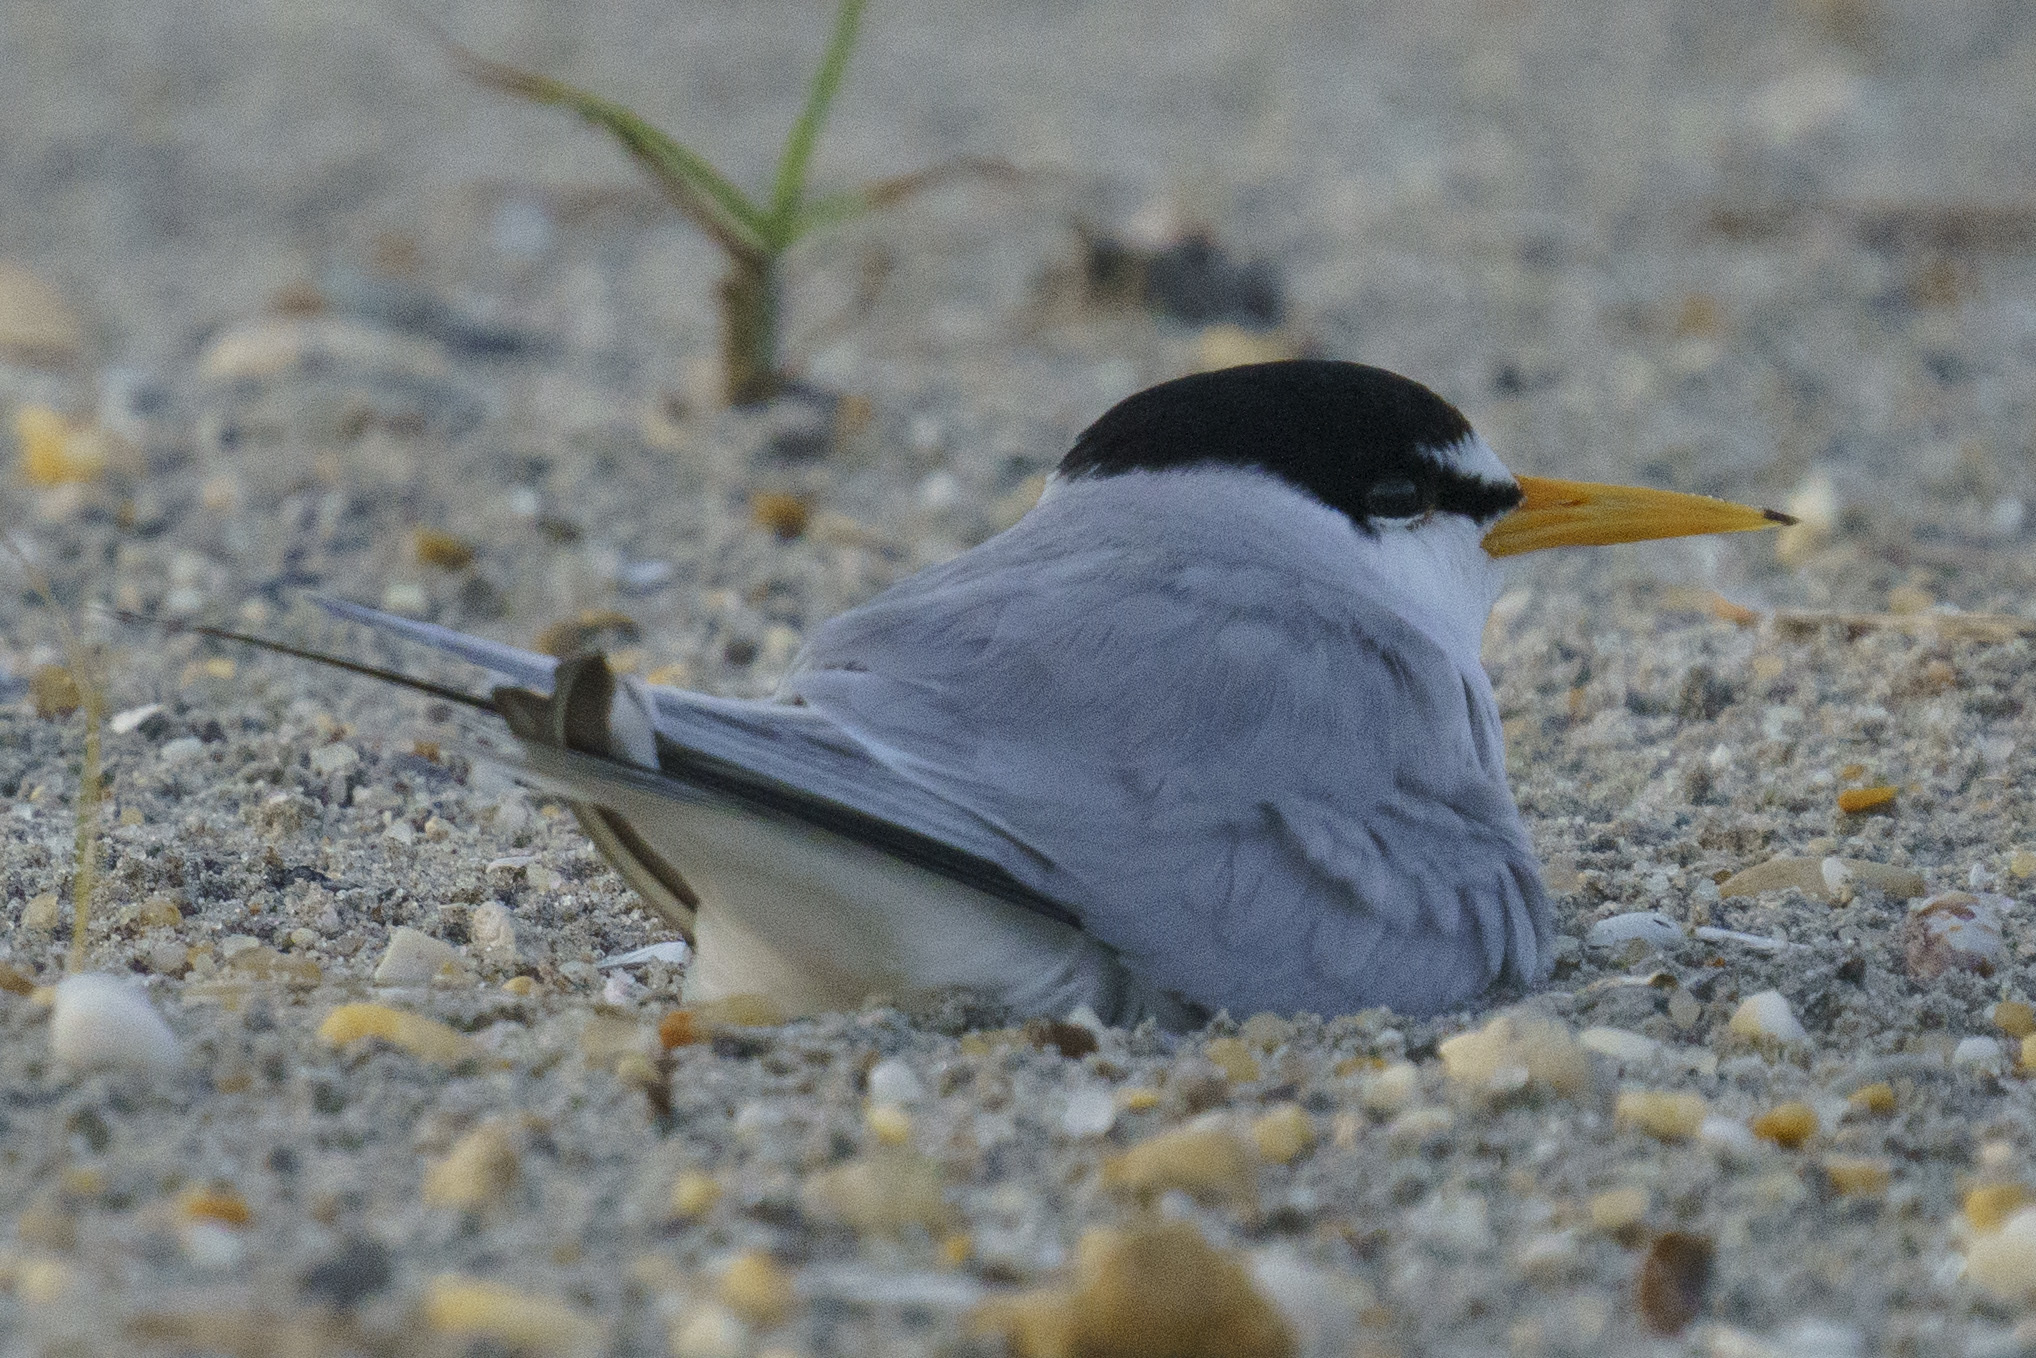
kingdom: Animalia
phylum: Chordata
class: Aves
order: Charadriiformes
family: Laridae
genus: Sternula
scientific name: Sternula antillarum
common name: Least tern
